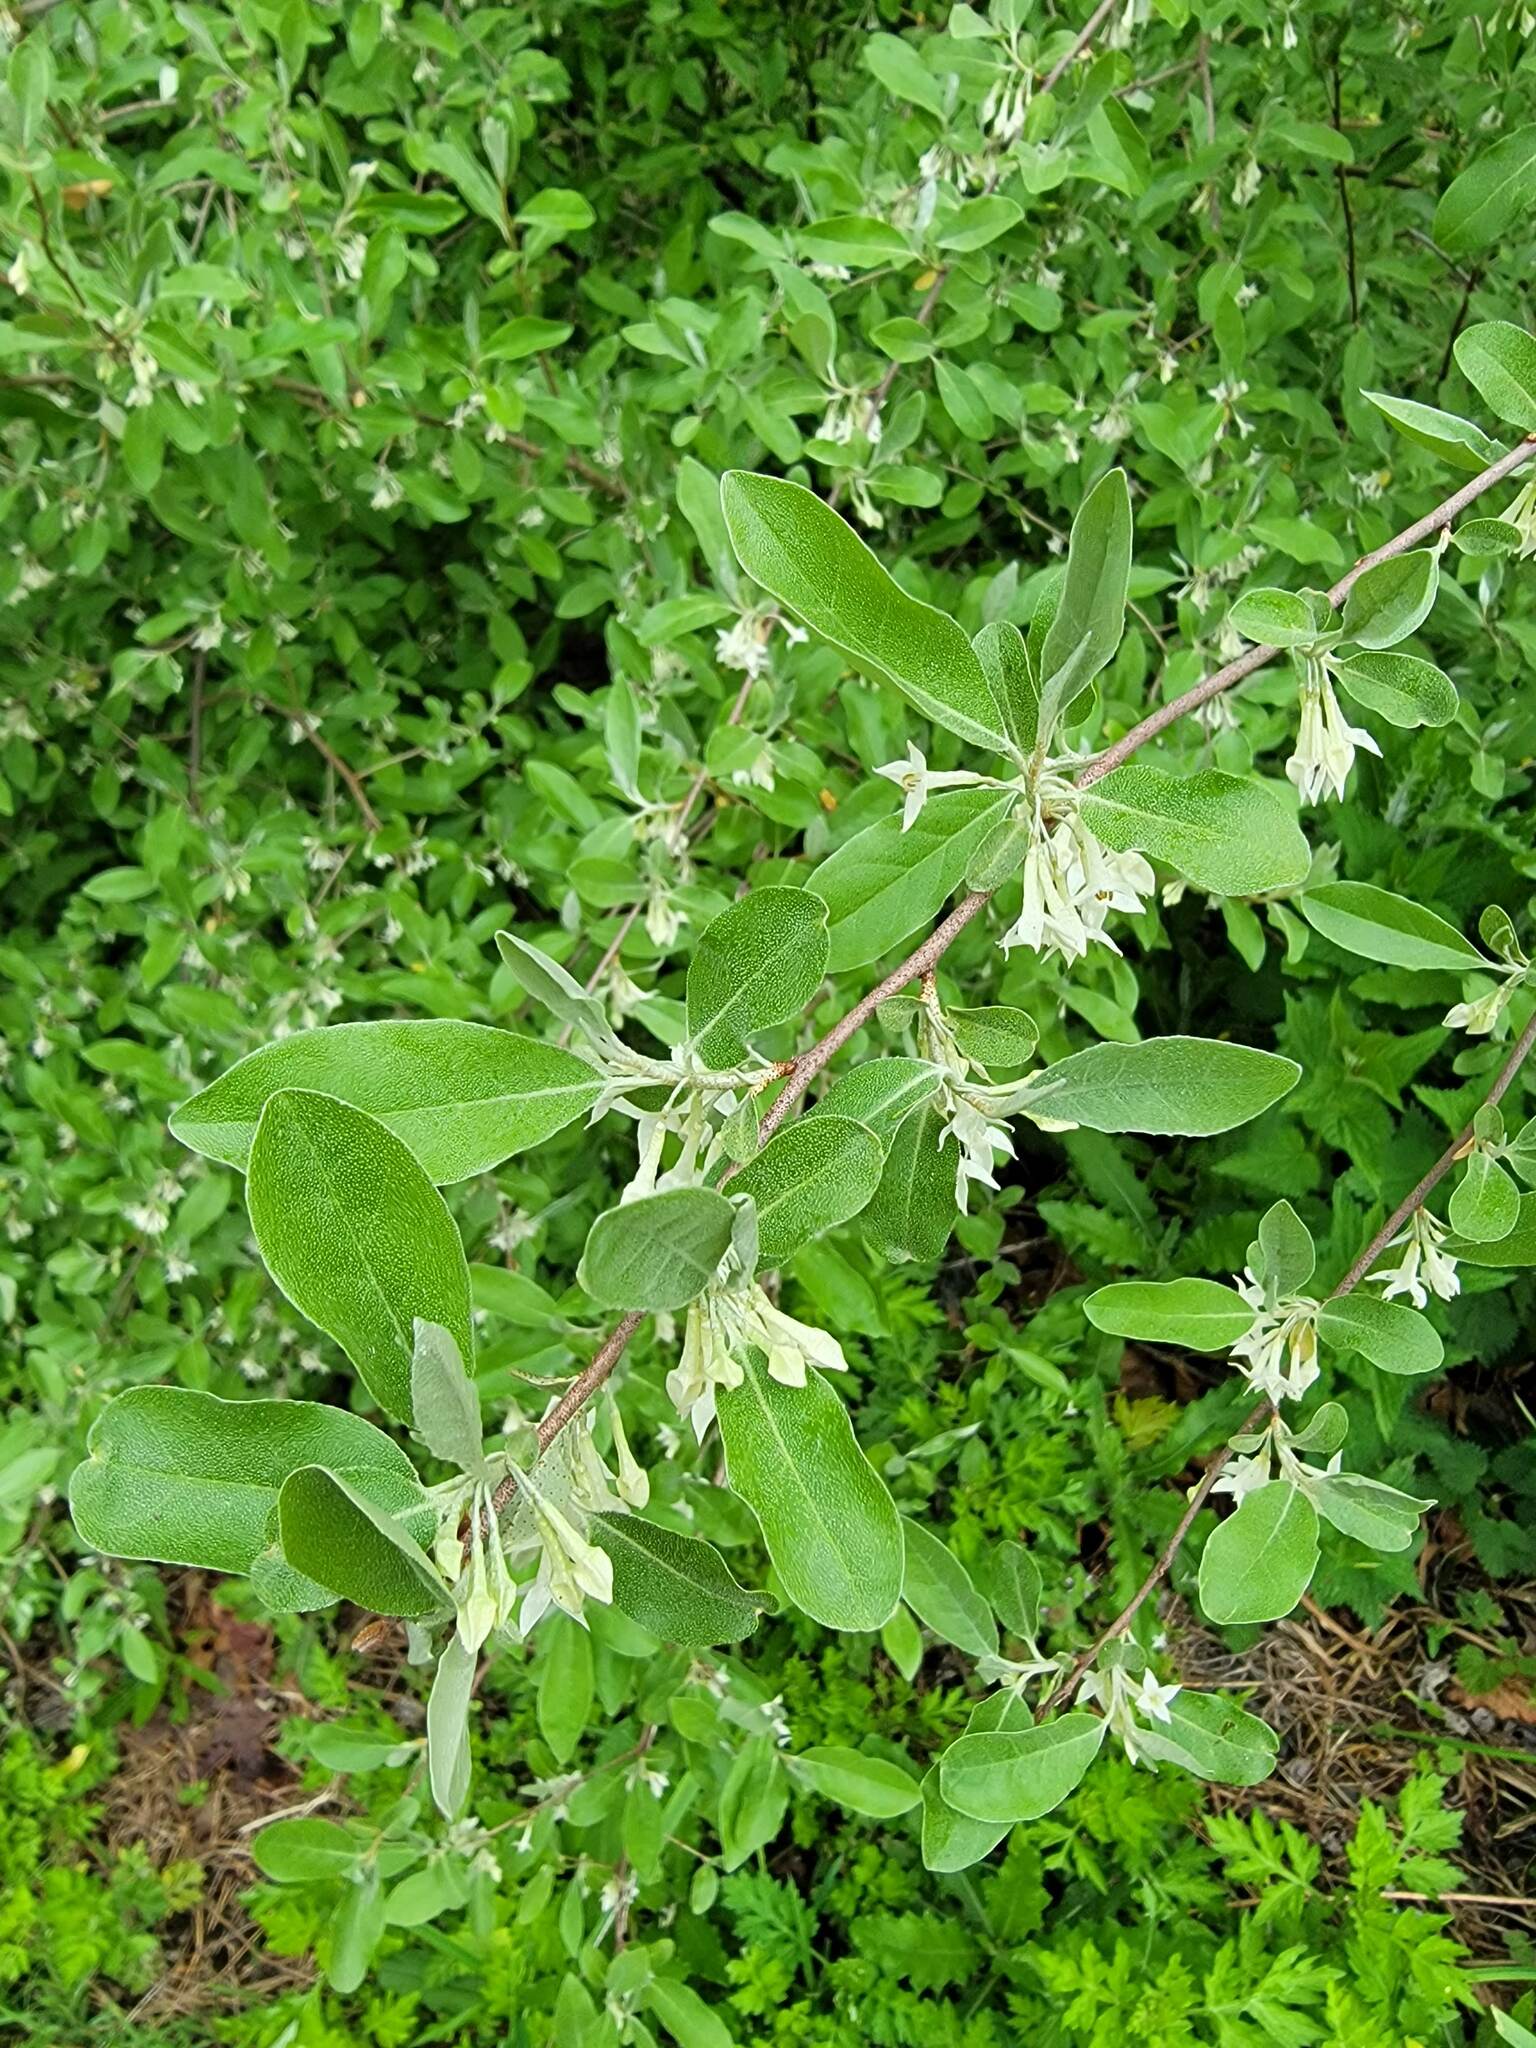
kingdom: Plantae
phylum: Tracheophyta
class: Magnoliopsida
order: Rosales
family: Elaeagnaceae
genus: Elaeagnus
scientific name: Elaeagnus umbellata
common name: Autumn olive
